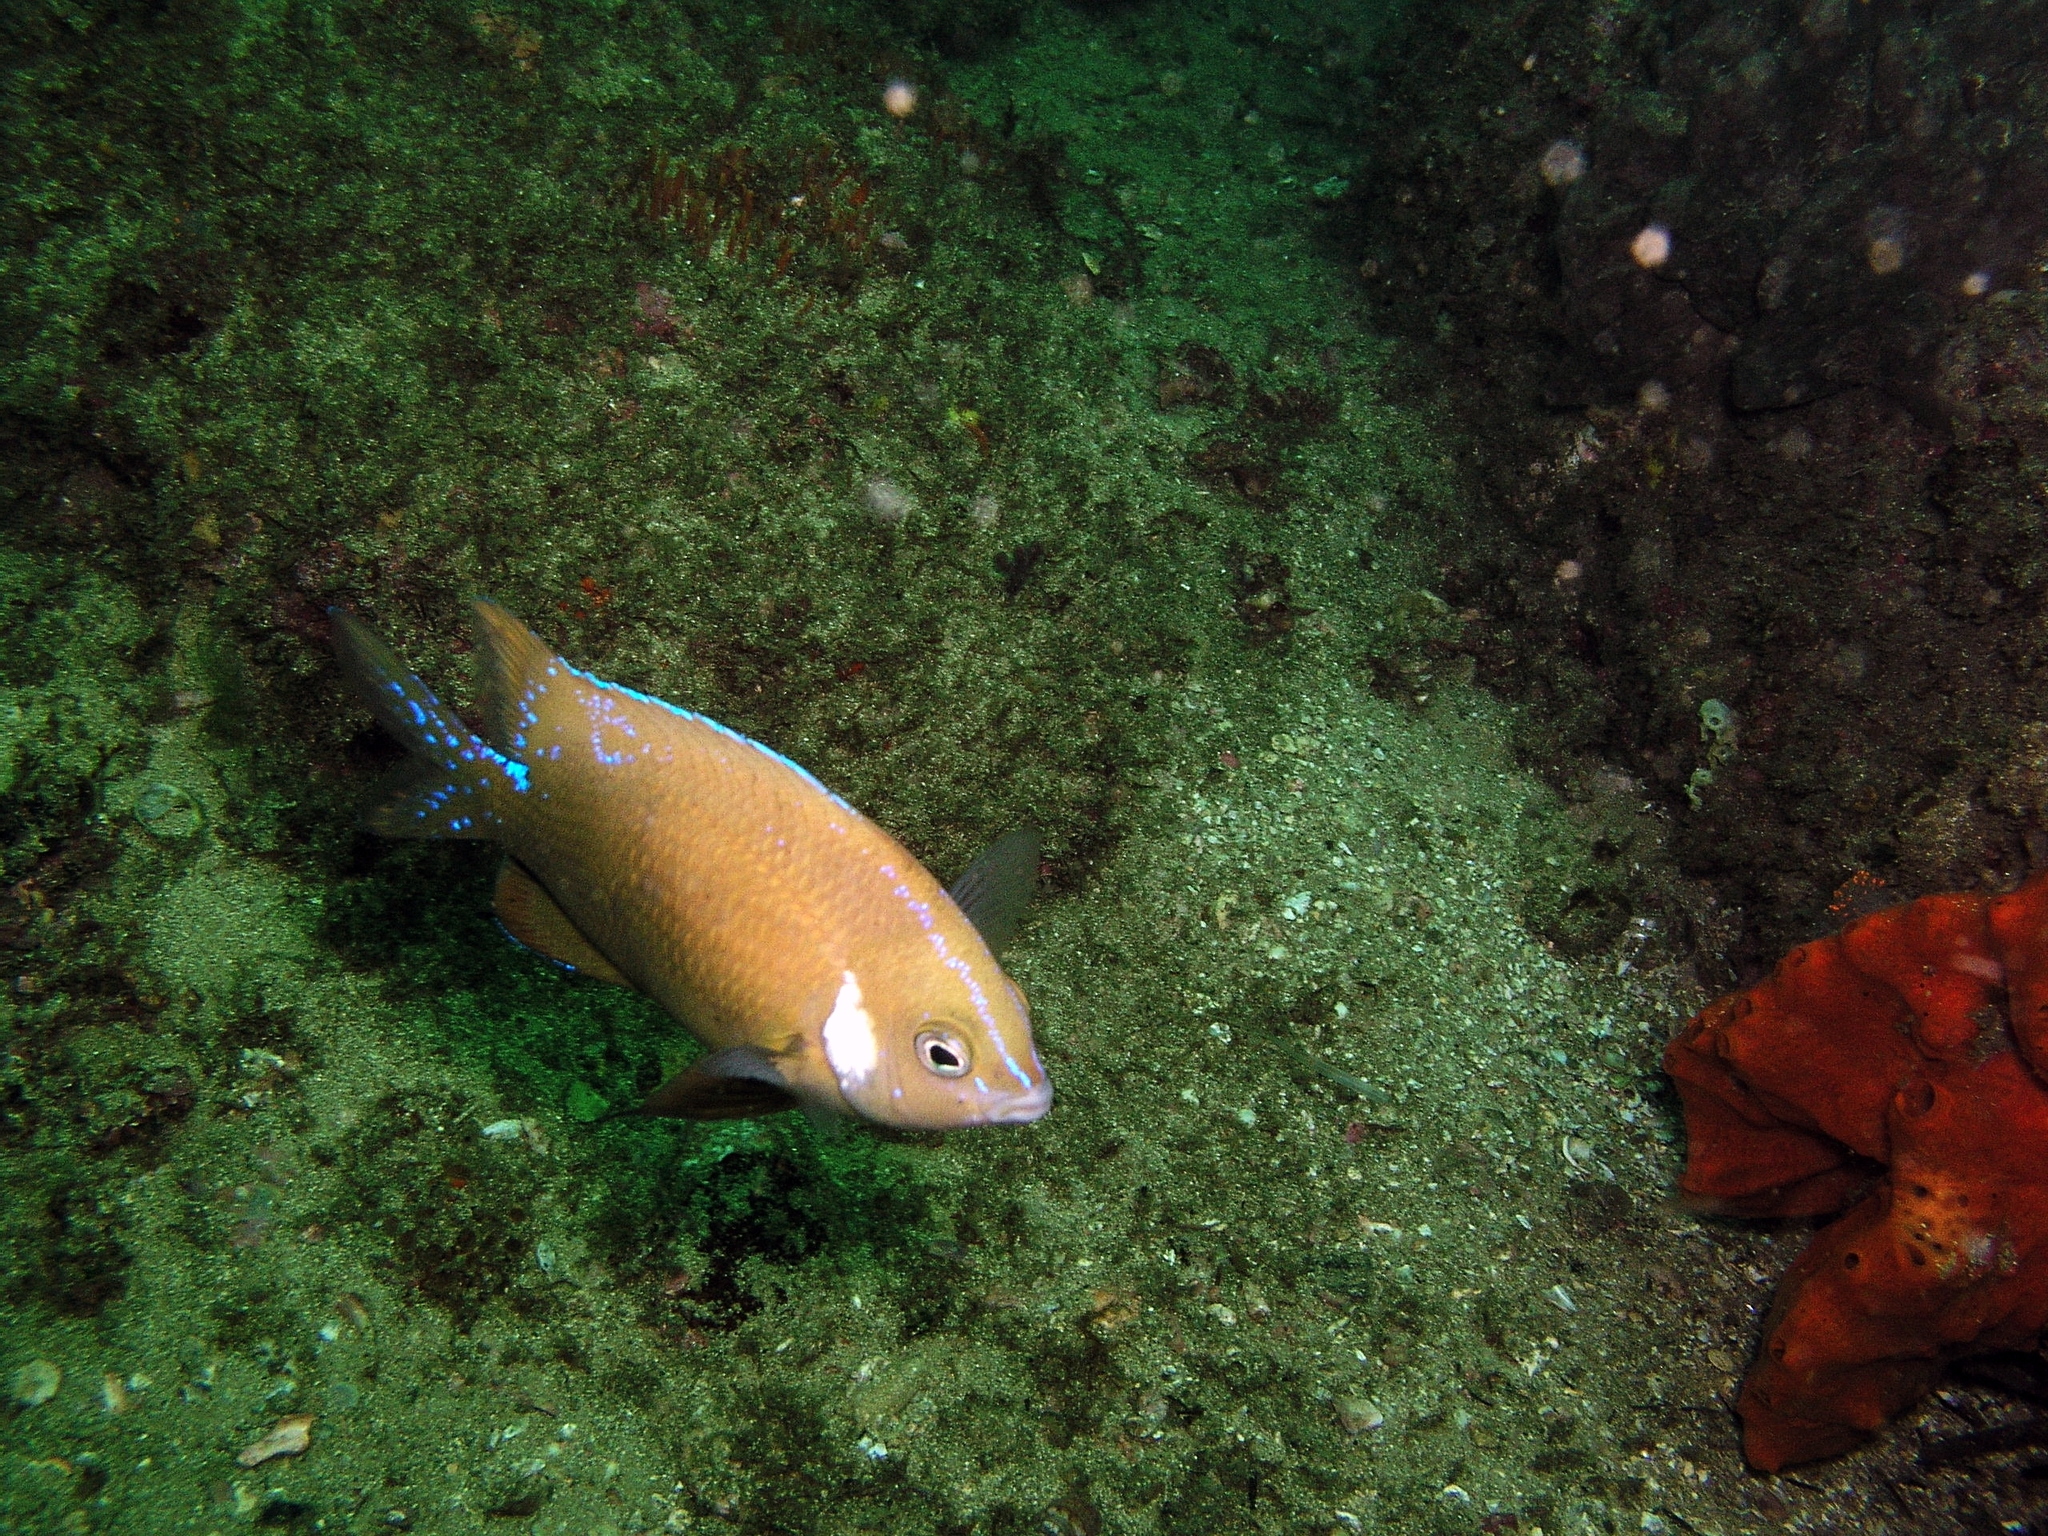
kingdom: Animalia
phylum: Chordata
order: Perciformes
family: Pomacentridae
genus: Parma
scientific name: Parma microlepis
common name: White-ear
